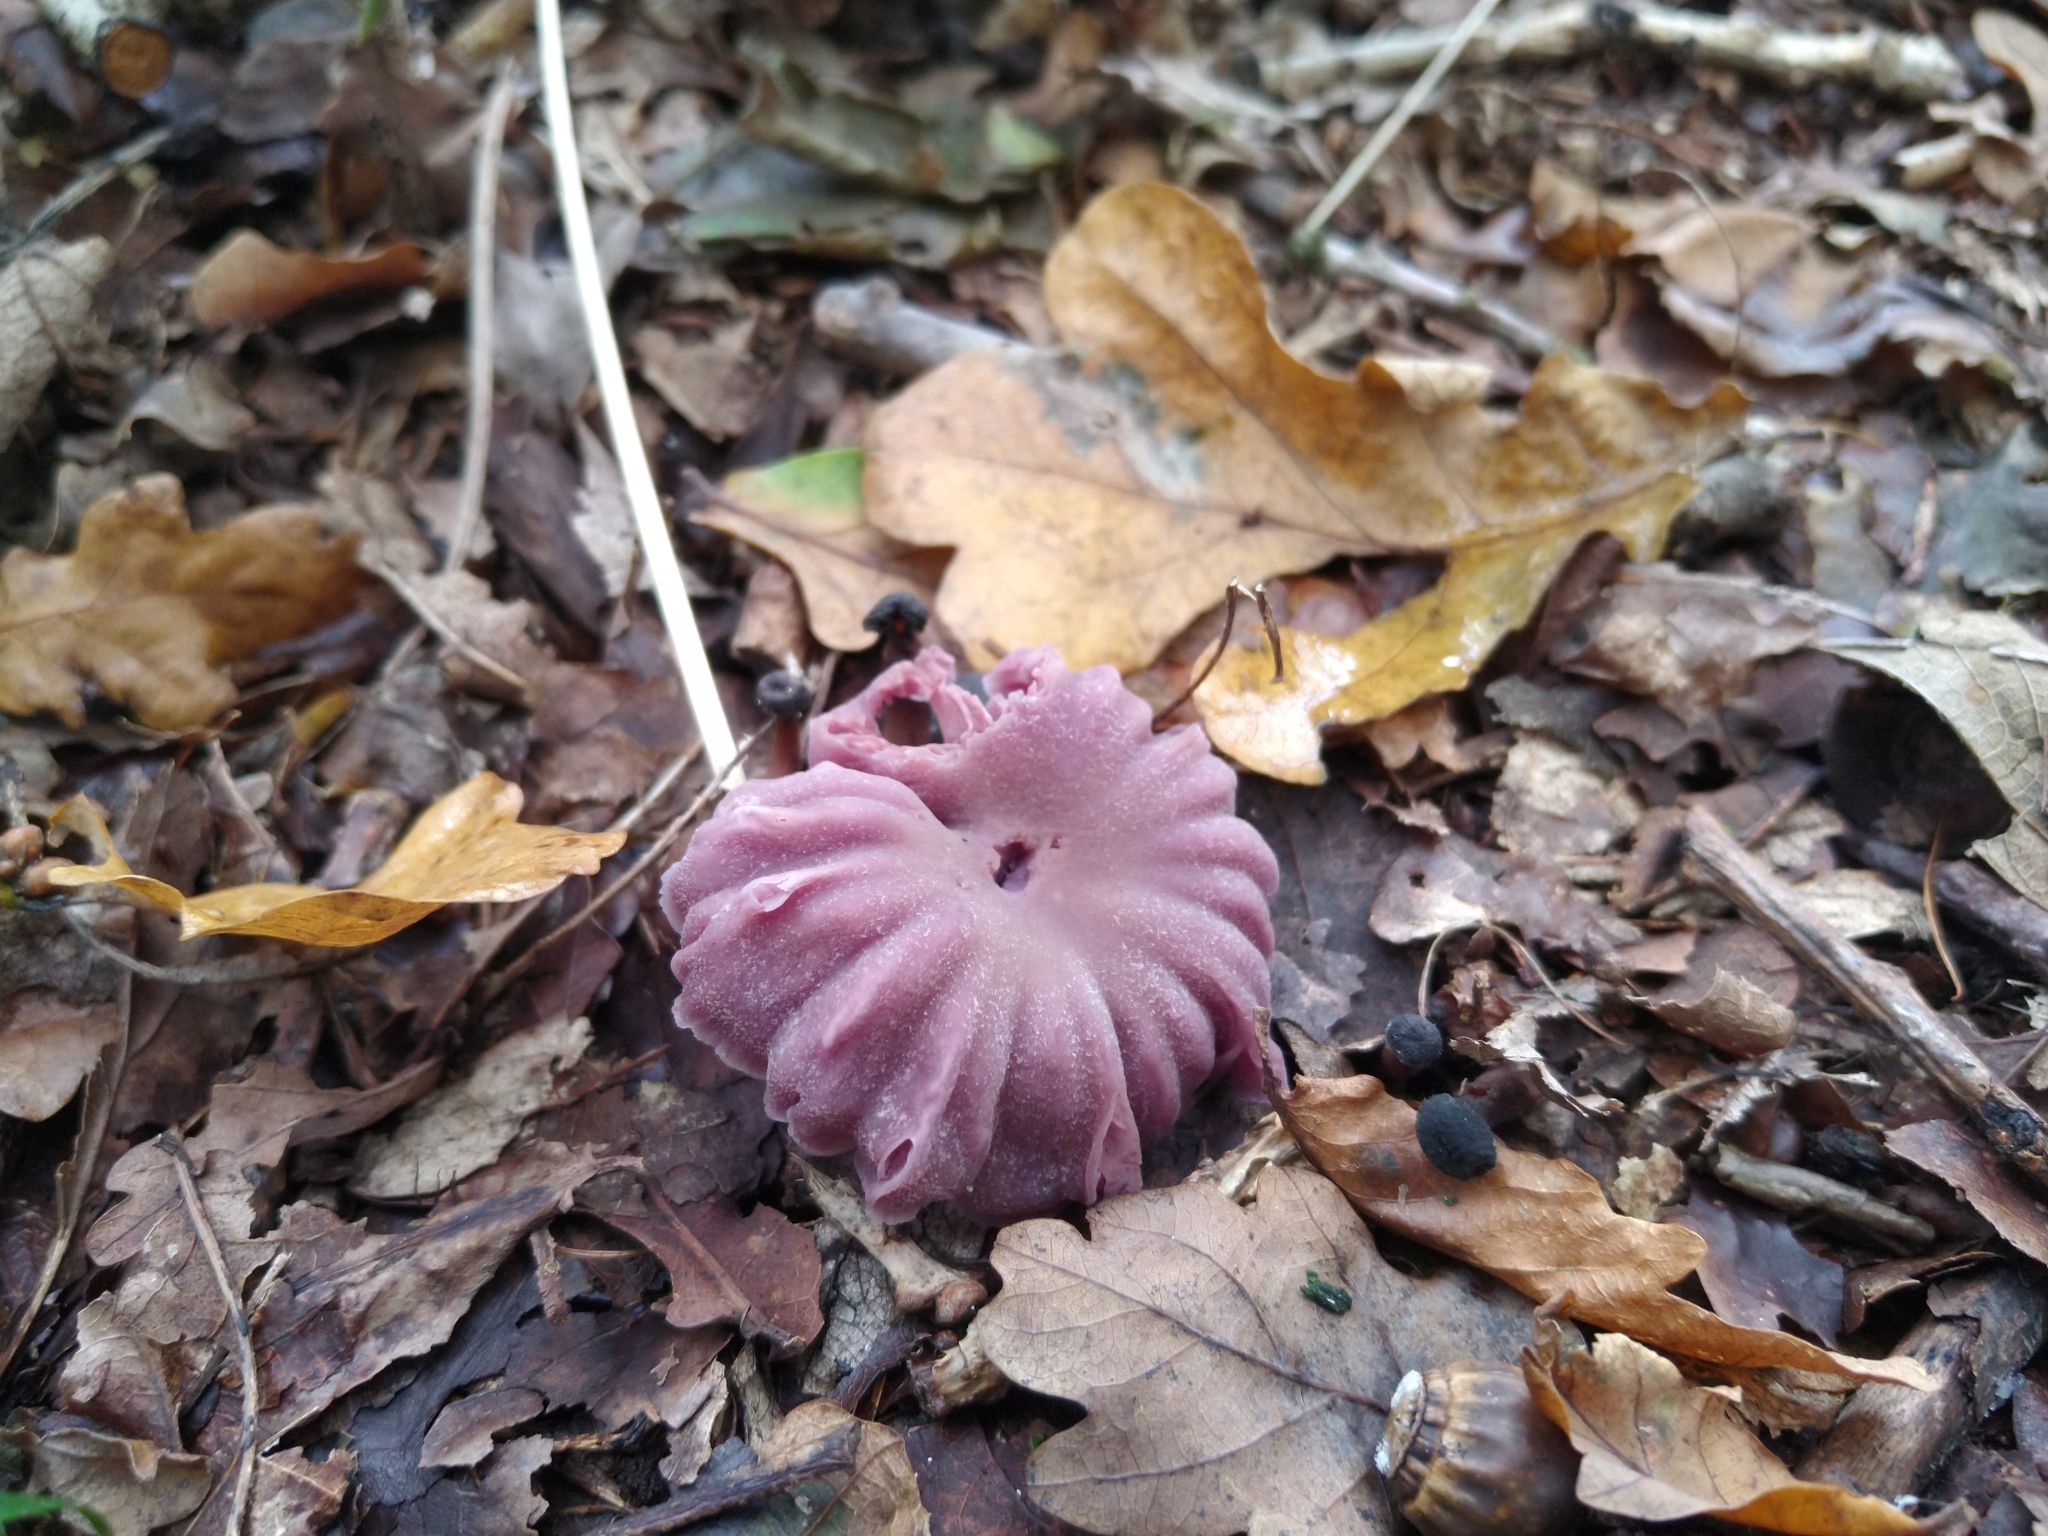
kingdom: Fungi
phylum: Basidiomycota
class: Agaricomycetes
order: Agaricales
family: Hydnangiaceae
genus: Laccaria
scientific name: Laccaria amethystina
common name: Amethyst deceiver
